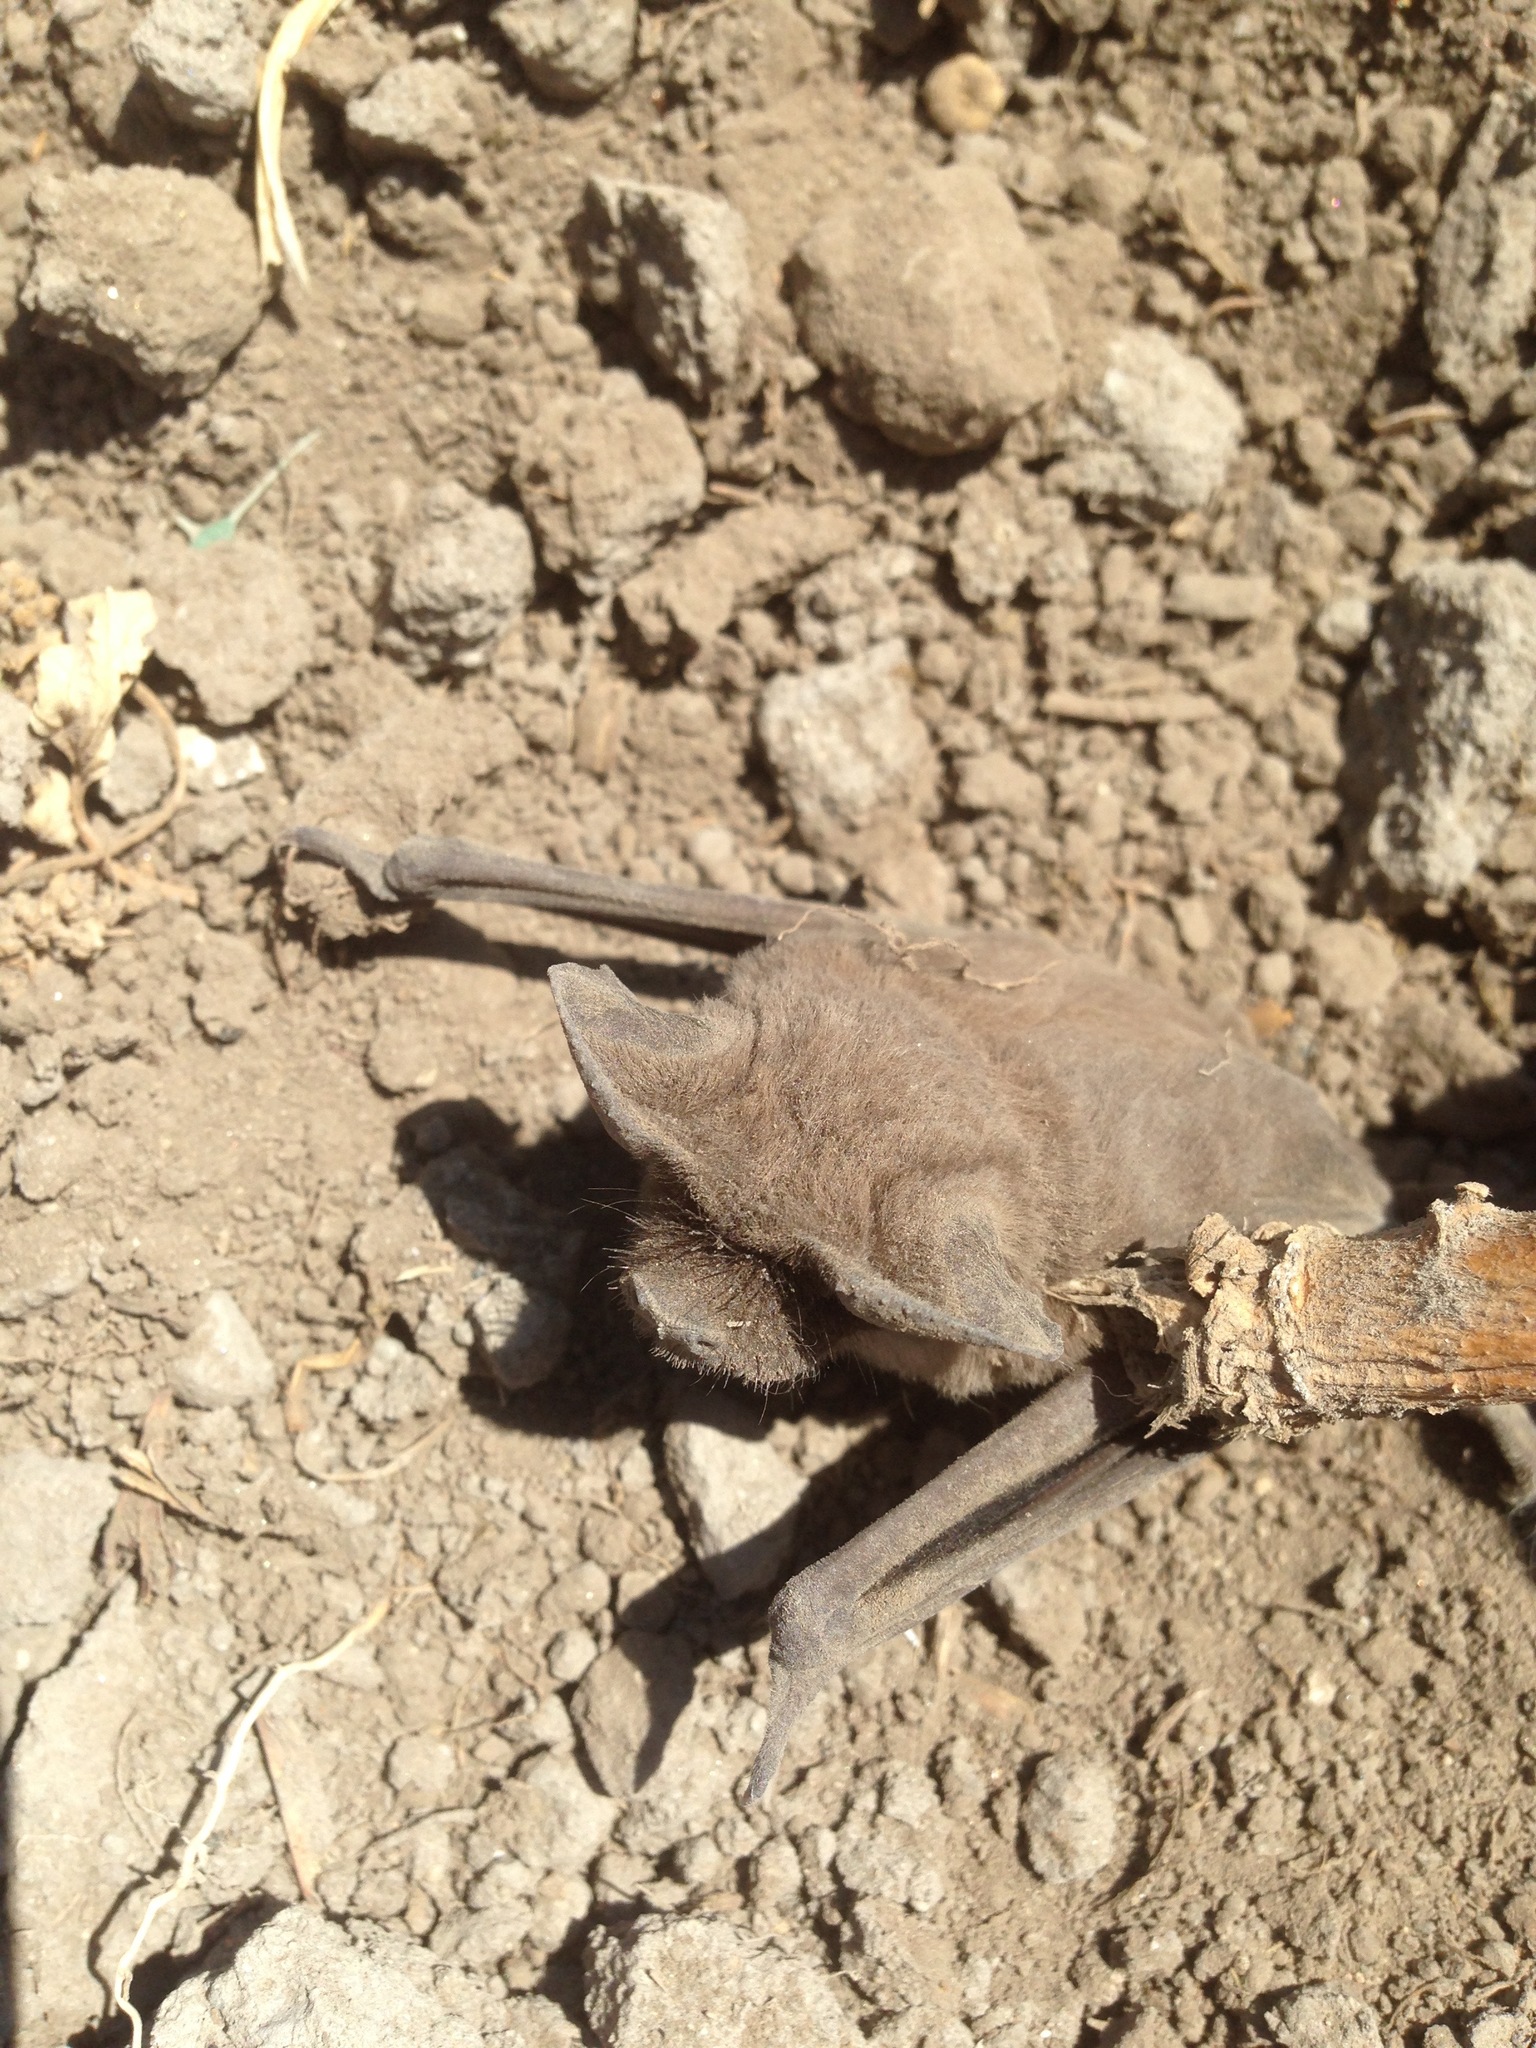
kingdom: Animalia
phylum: Chordata
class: Mammalia
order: Chiroptera
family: Molossidae
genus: Tadarida
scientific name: Tadarida brasiliensis
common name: Mexican free-tailed bat
